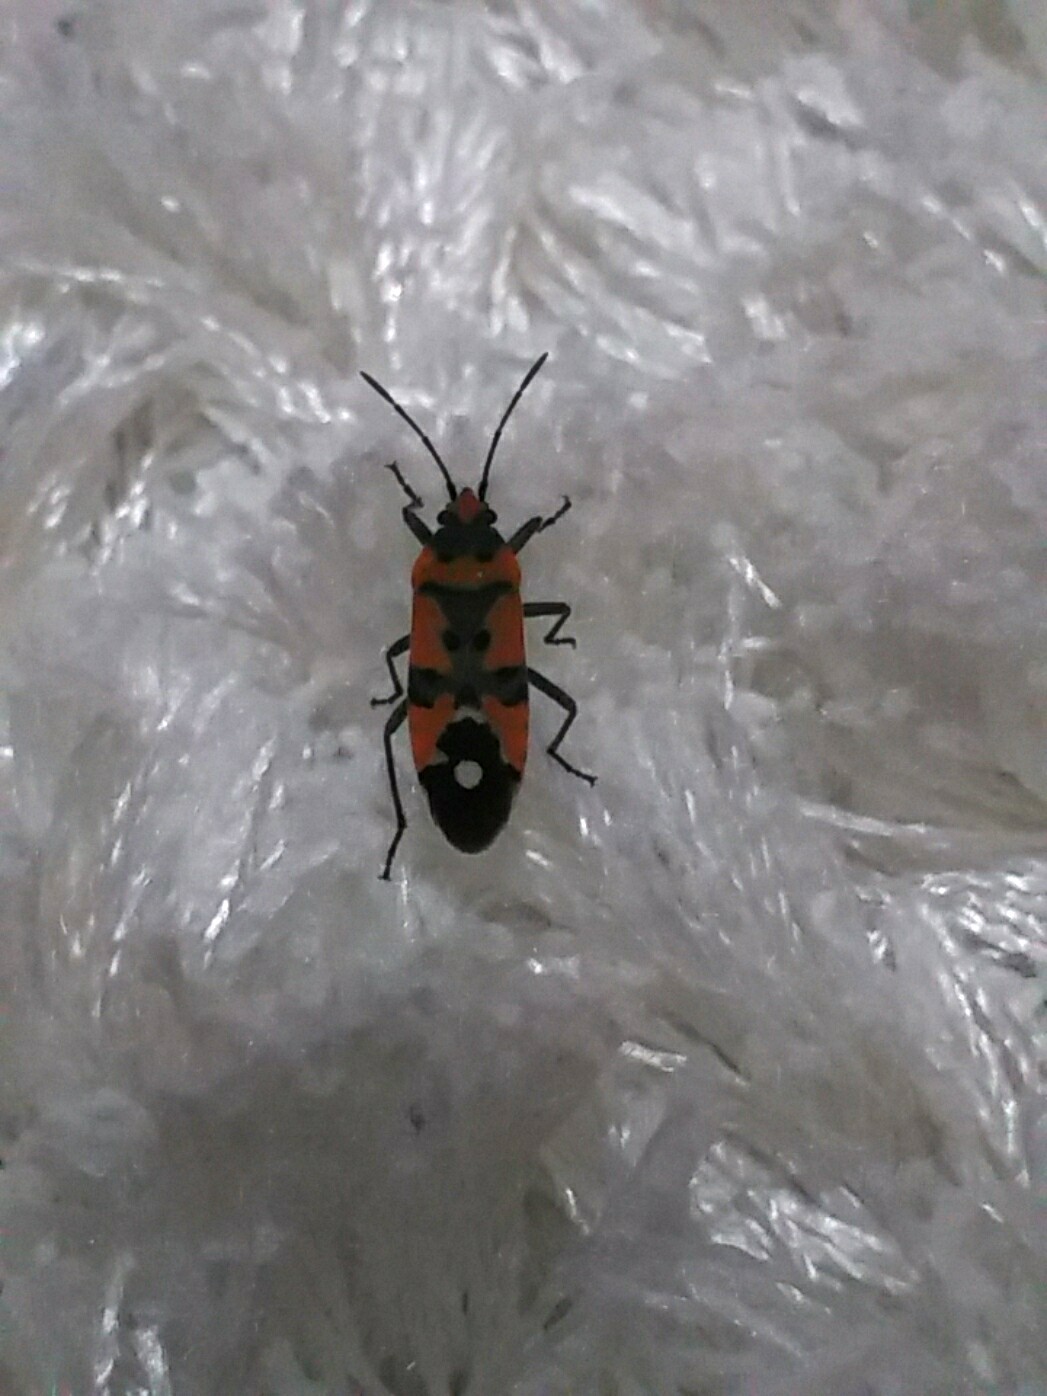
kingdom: Animalia
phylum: Arthropoda
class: Insecta
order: Hemiptera
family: Lygaeidae
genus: Lygaeus
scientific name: Lygaeus equestris
